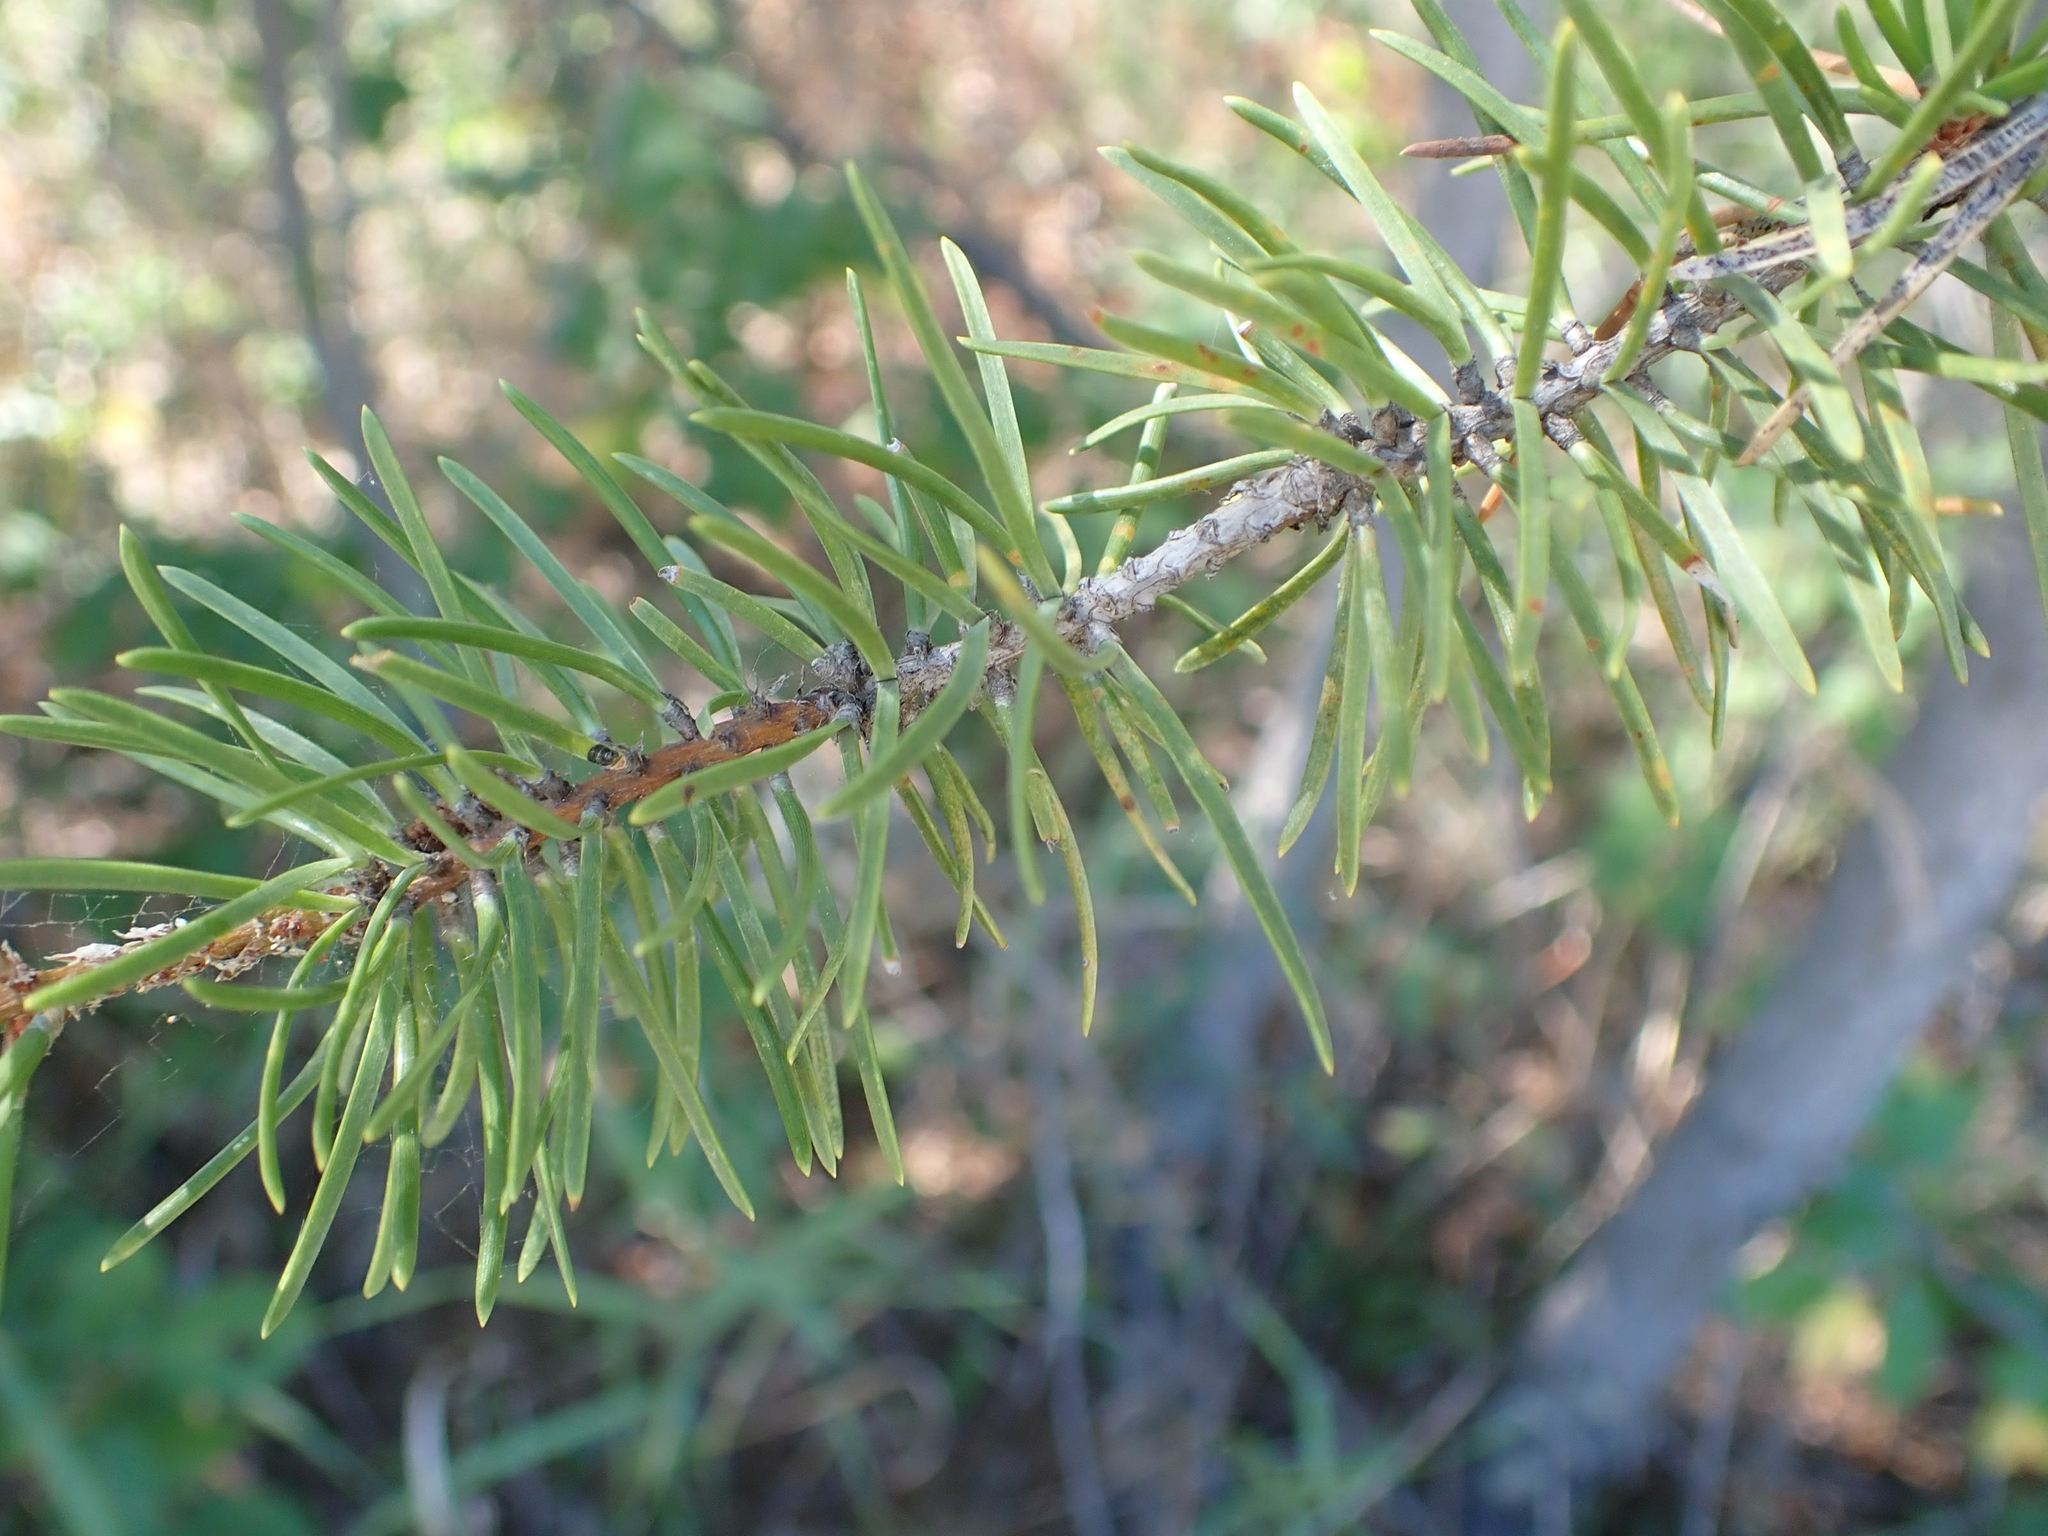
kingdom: Plantae
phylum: Tracheophyta
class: Pinopsida
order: Pinales
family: Pinaceae
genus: Pinus
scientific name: Pinus banksiana
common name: Jack pine
